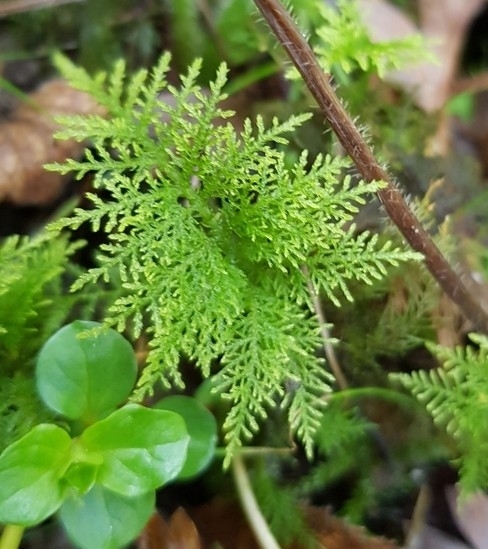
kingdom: Plantae
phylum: Bryophyta
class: Bryopsida
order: Hypnales
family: Thuidiaceae
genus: Thuidium
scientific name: Thuidium tamariscinum
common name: Common tamarisk-moss
